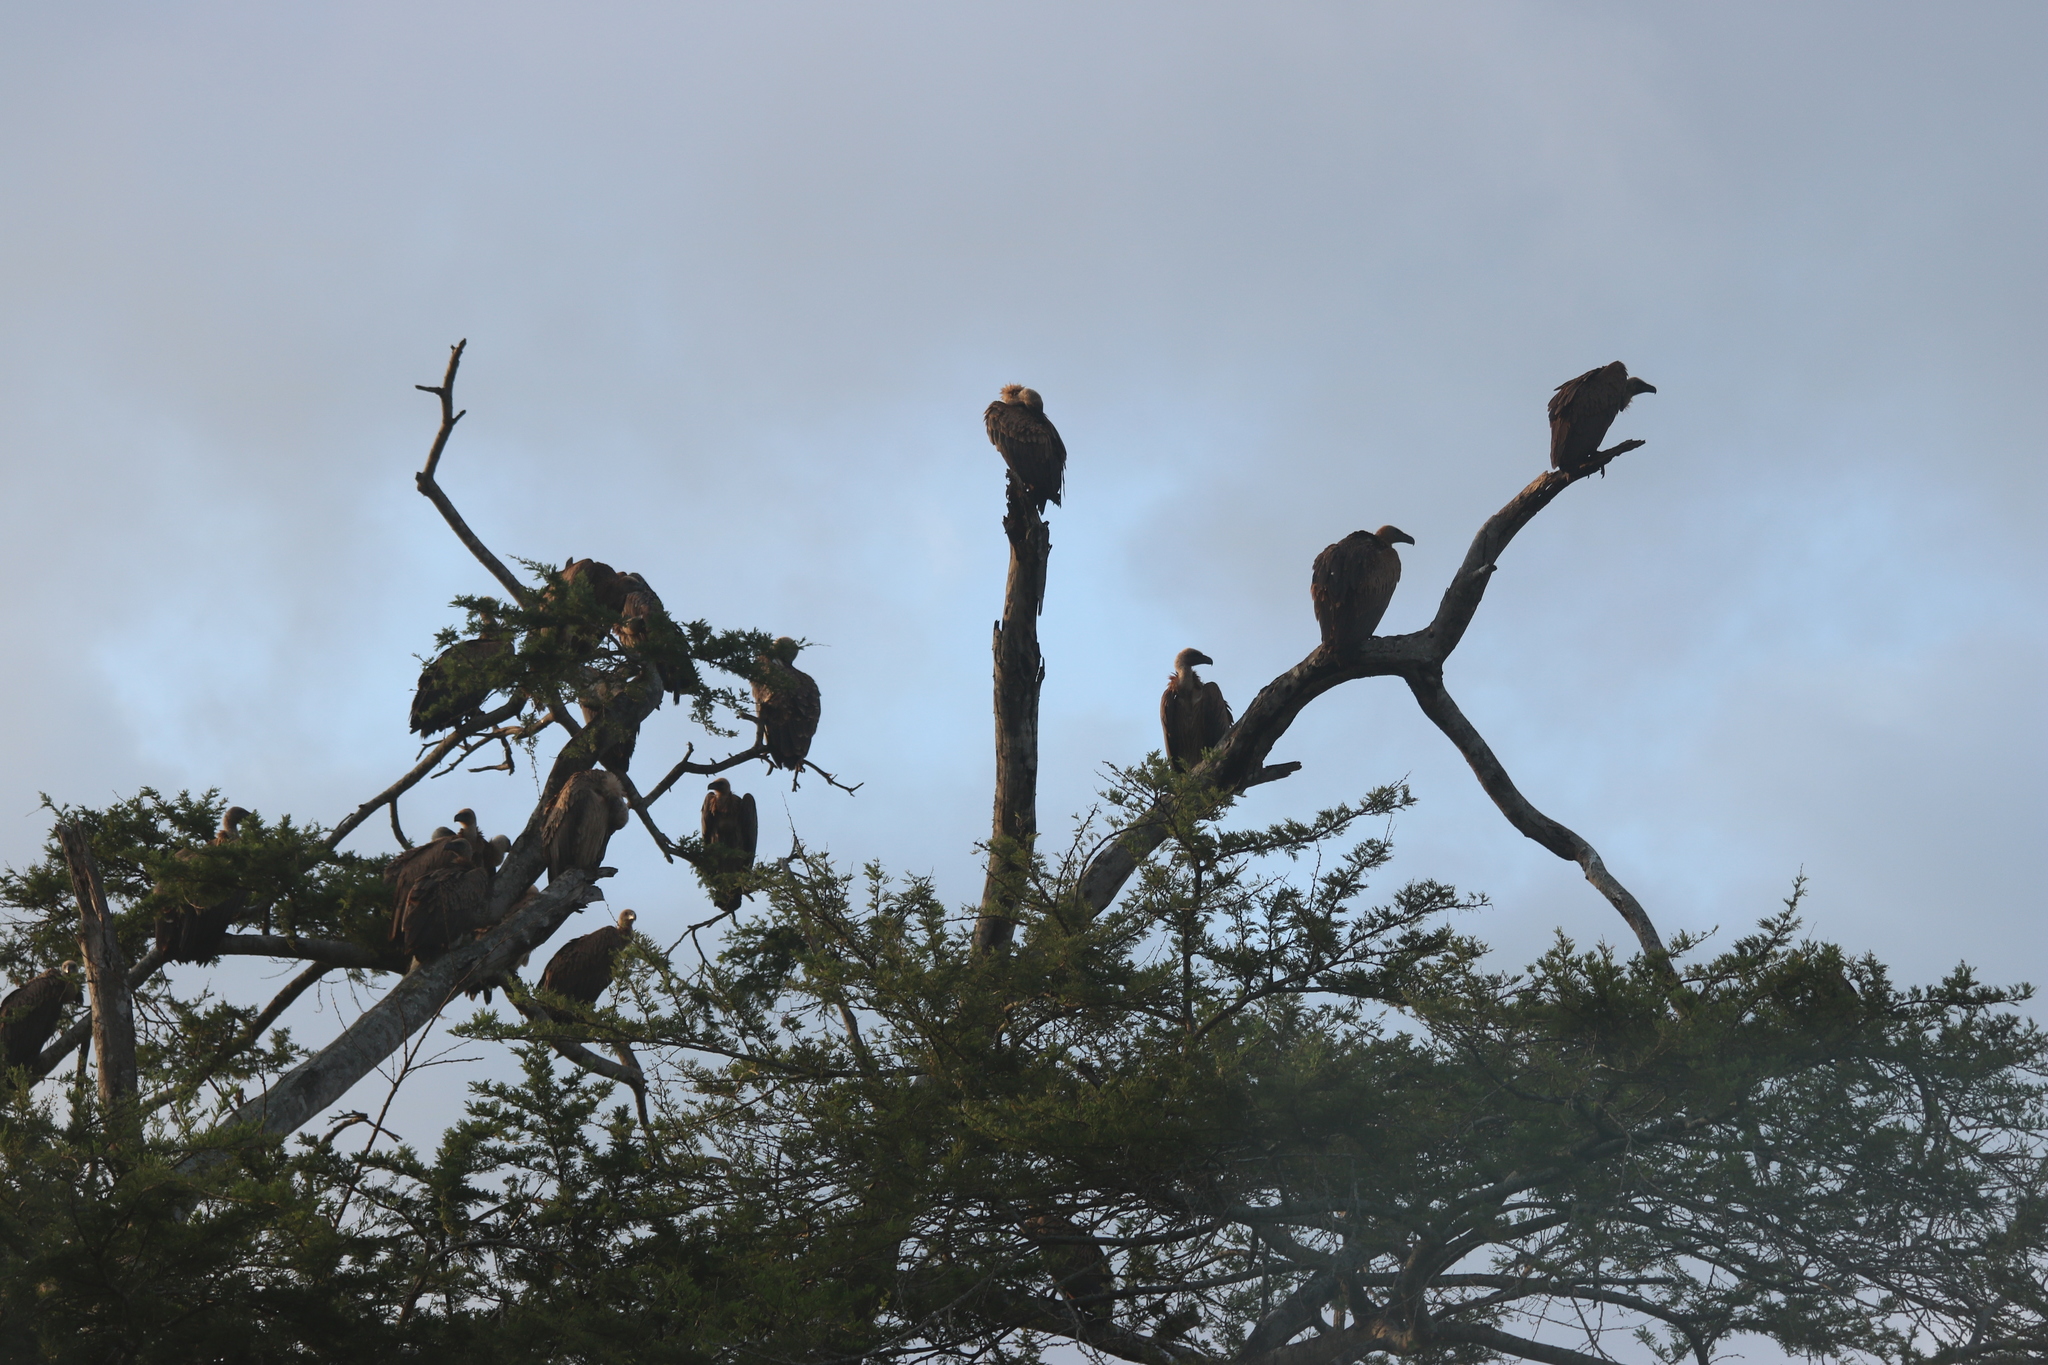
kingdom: Animalia
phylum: Chordata
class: Aves
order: Accipitriformes
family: Accipitridae
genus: Gyps
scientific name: Gyps africanus
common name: White-backed vulture
